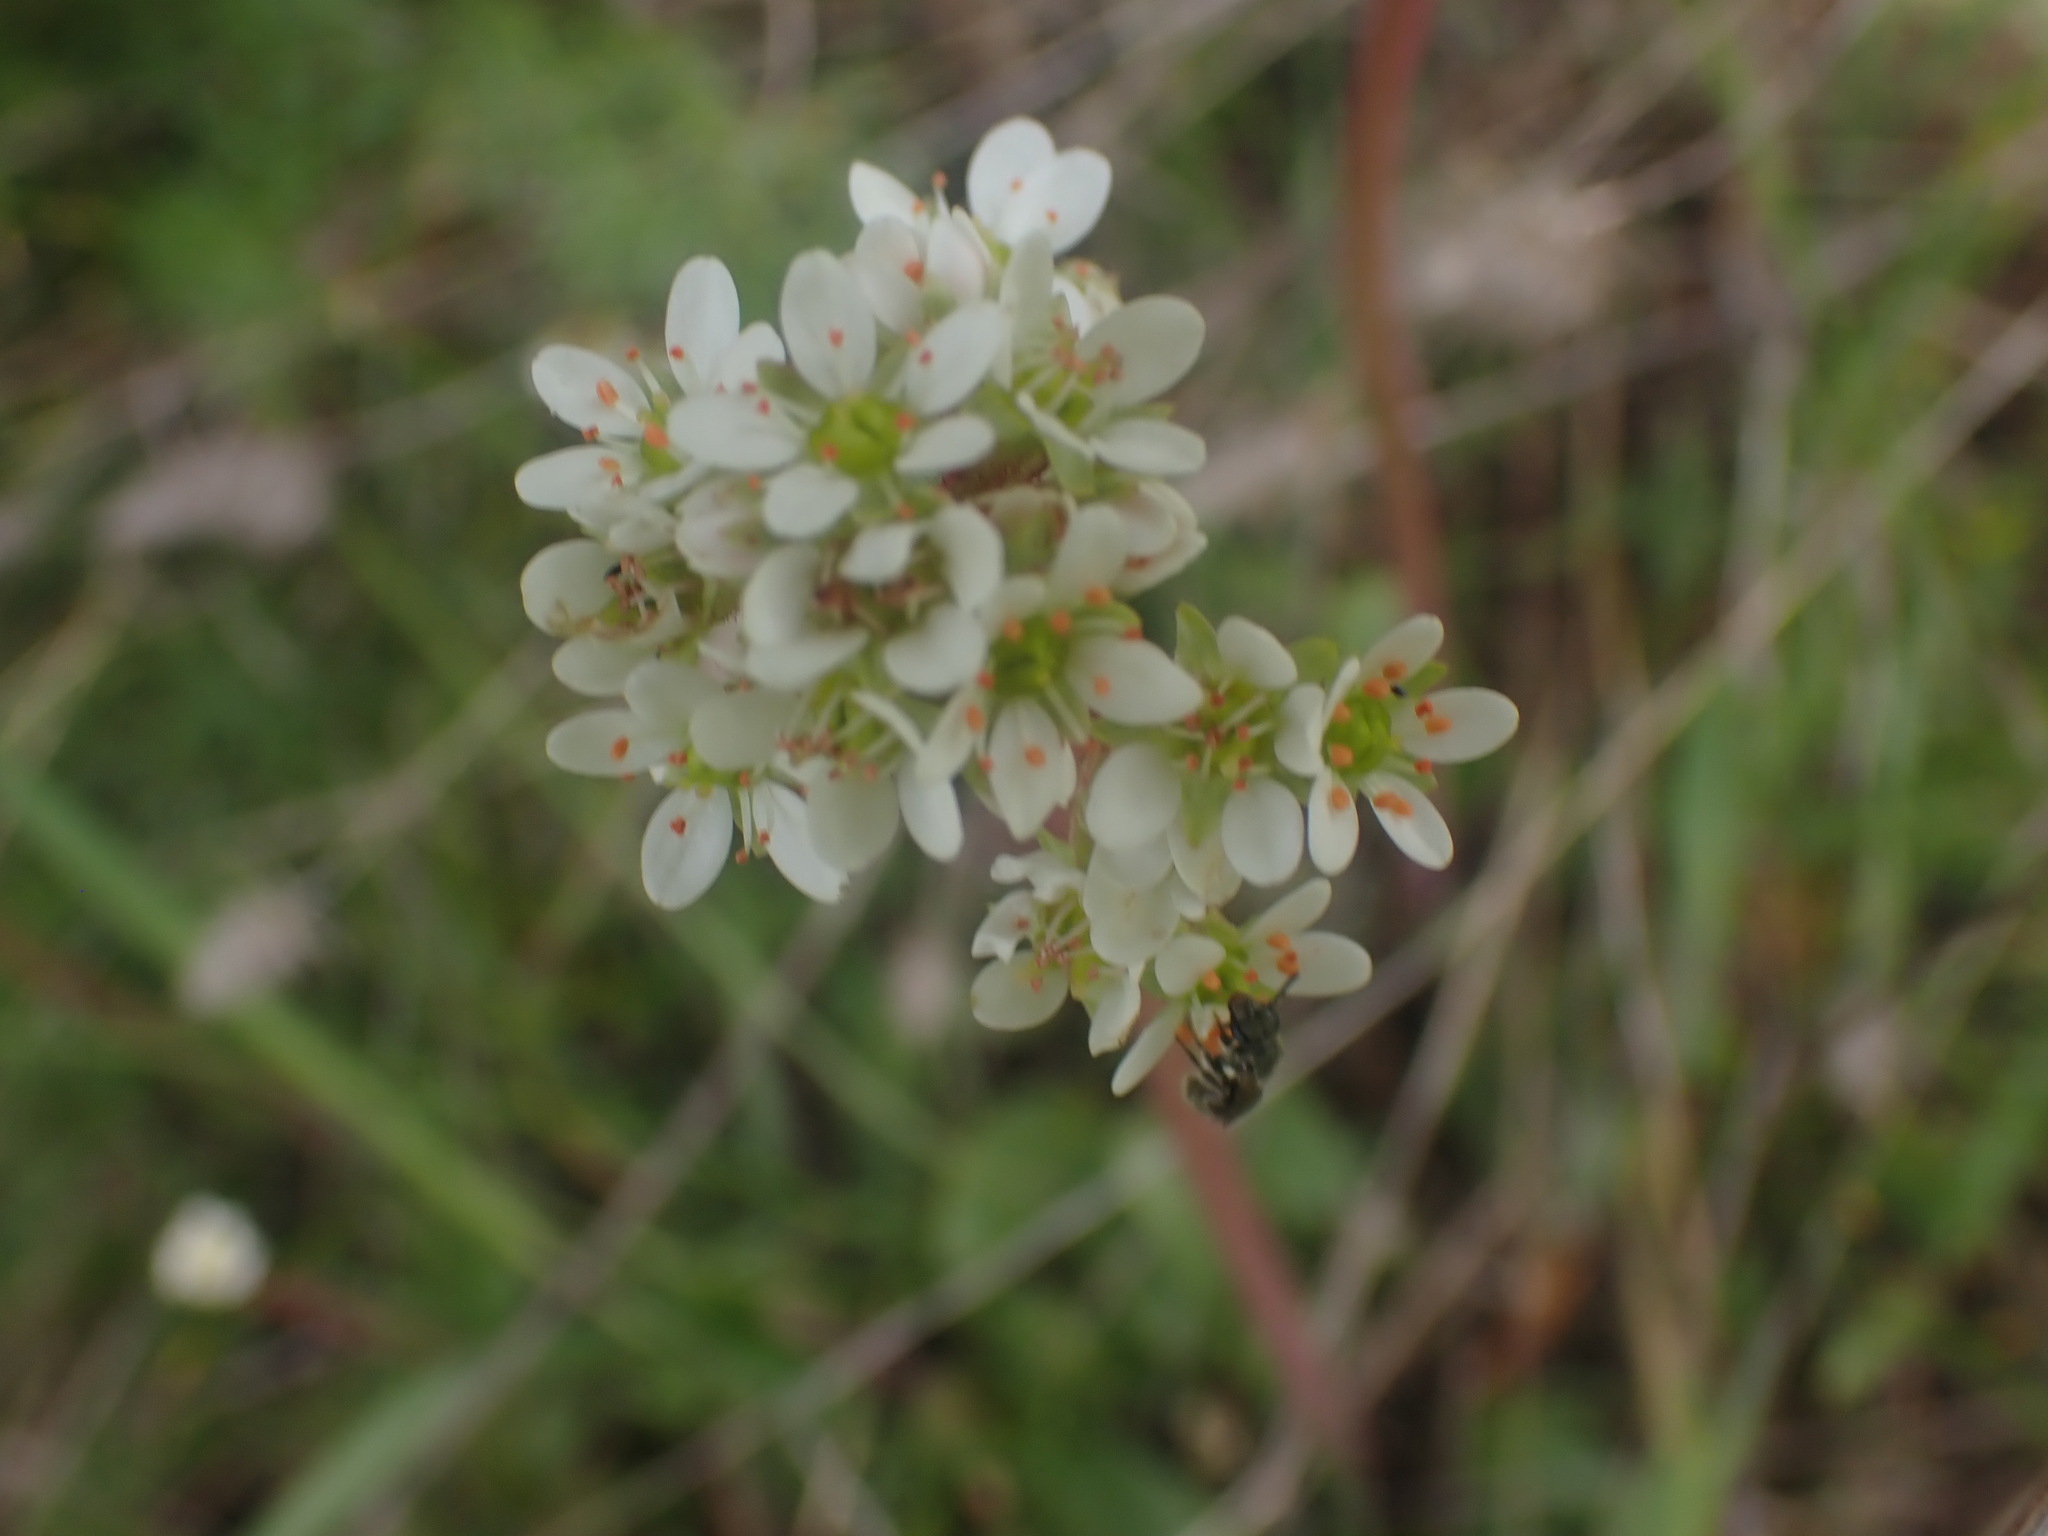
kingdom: Plantae
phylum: Tracheophyta
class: Magnoliopsida
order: Saxifragales
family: Saxifragaceae
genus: Micranthes
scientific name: Micranthes integrifolia
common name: Wholeleaf saxifrage
